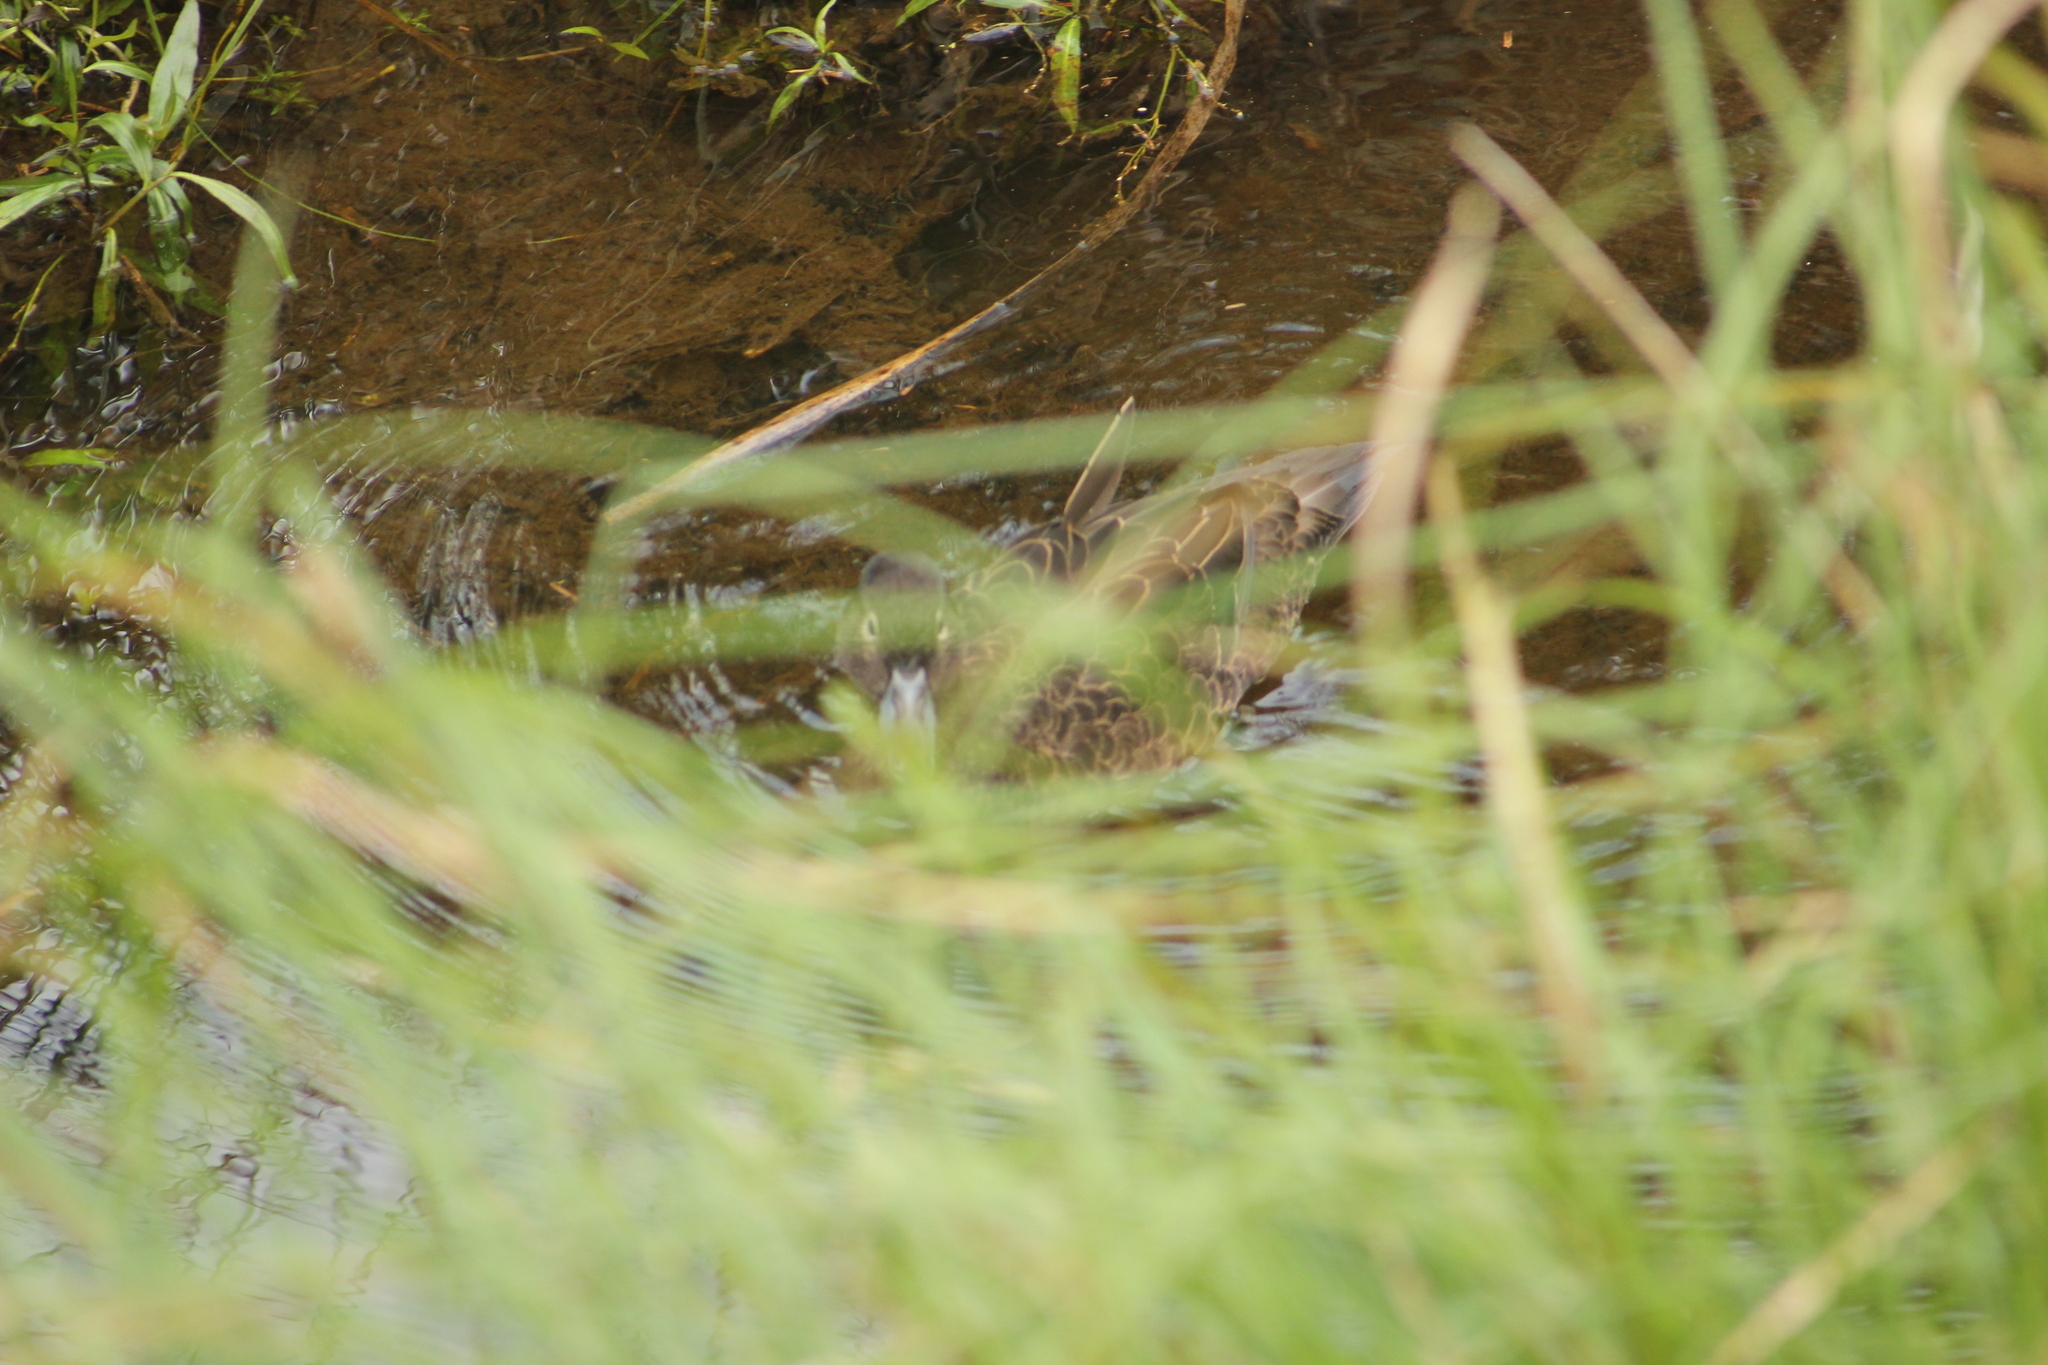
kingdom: Animalia
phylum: Chordata
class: Aves
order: Anseriformes
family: Anatidae
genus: Anas
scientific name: Anas chlorotis
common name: Brown teal
